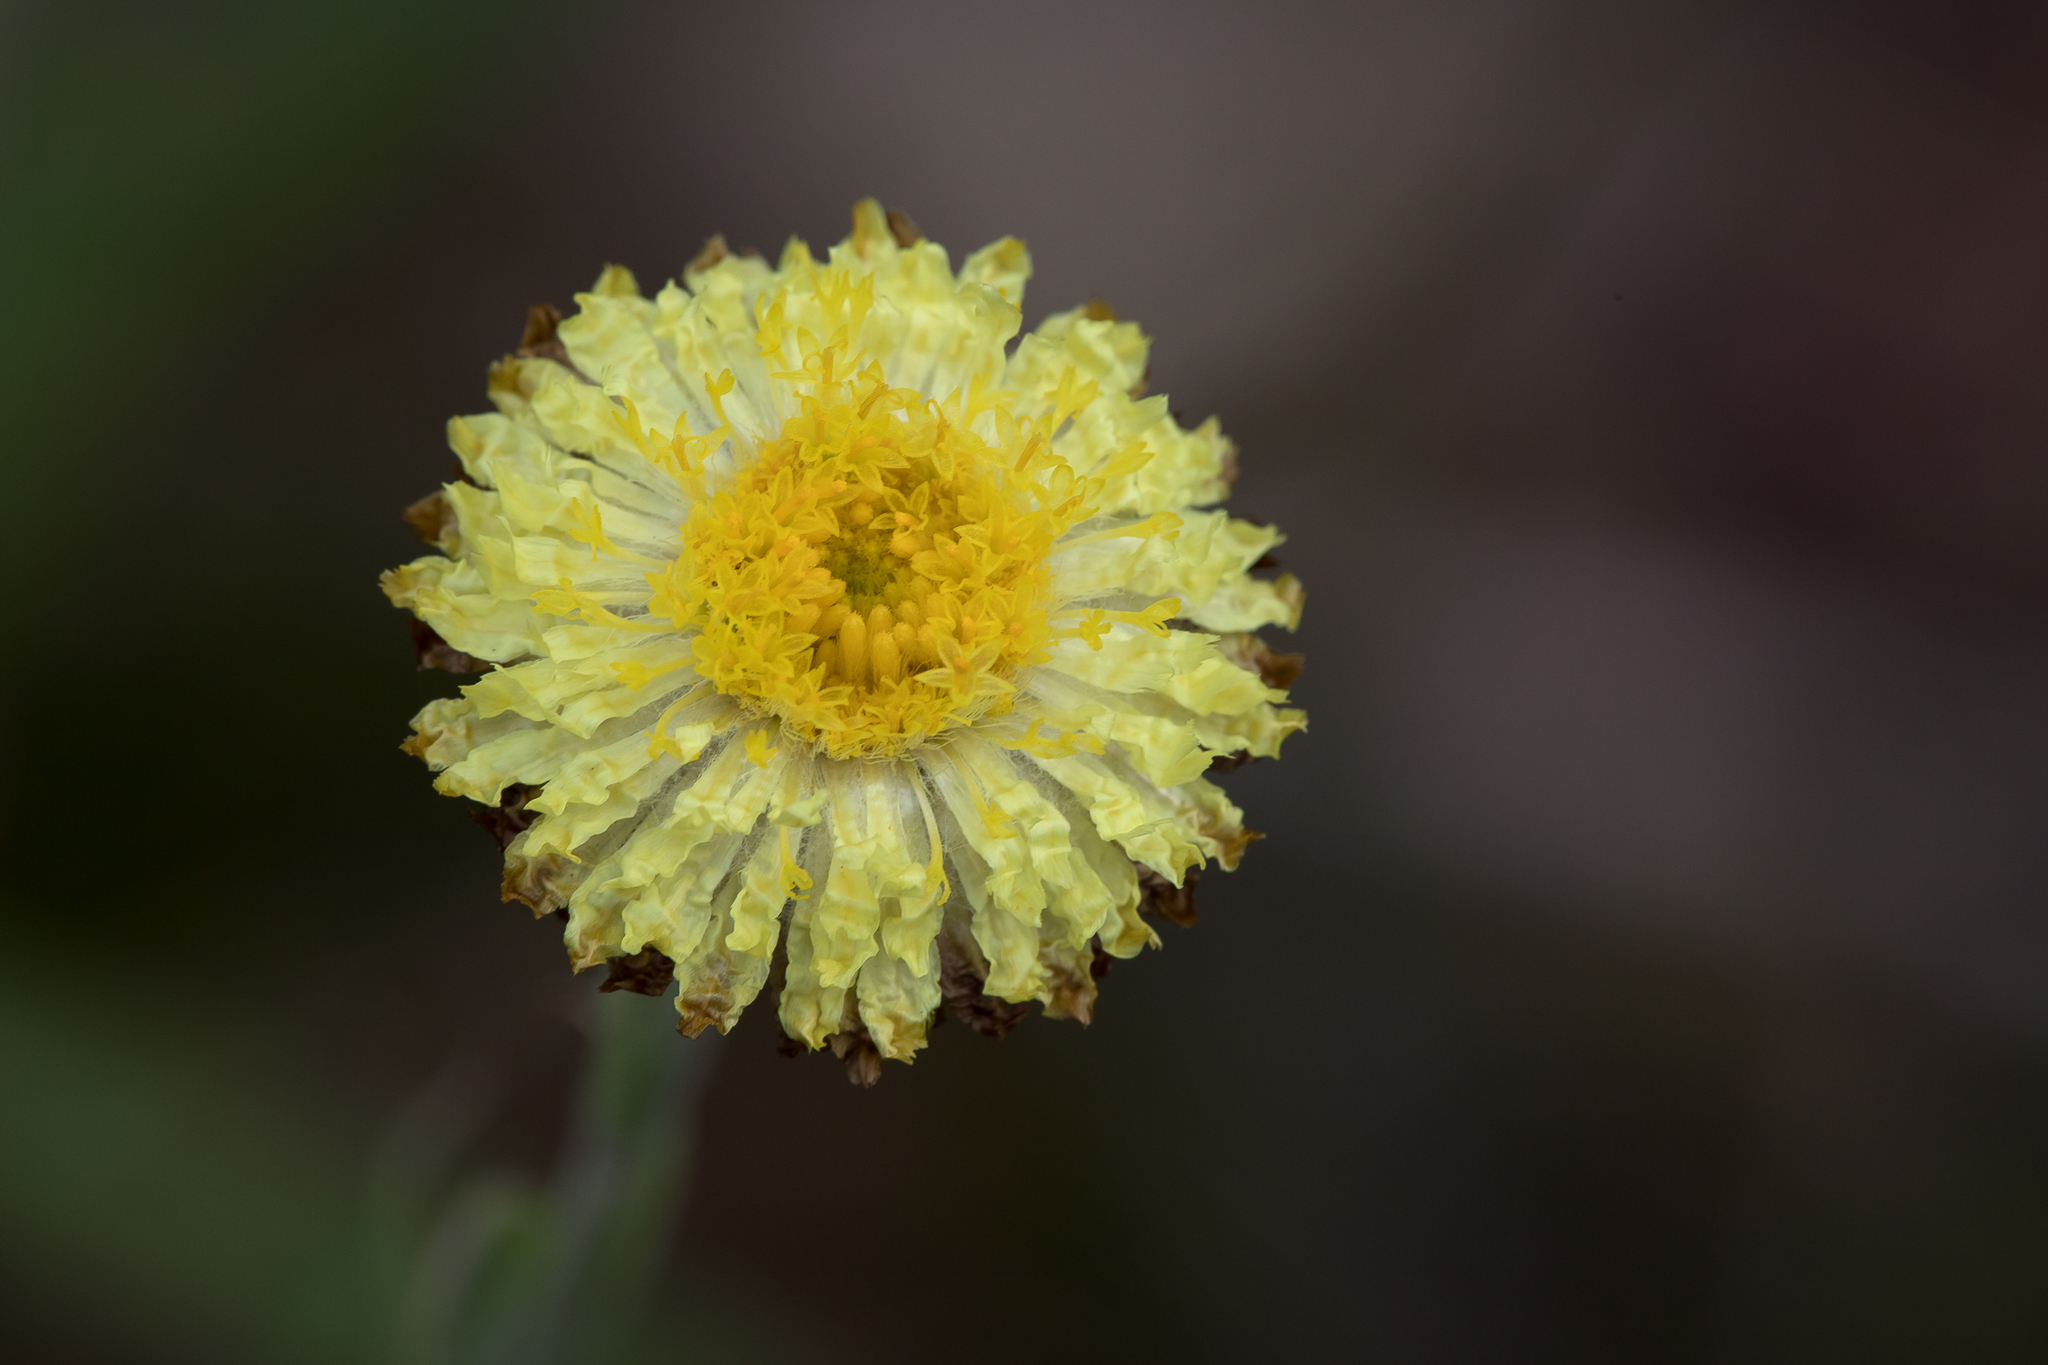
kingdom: Plantae
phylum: Tracheophyta
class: Magnoliopsida
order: Asterales
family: Asteraceae
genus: Coronidium
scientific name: Coronidium scorpioides
